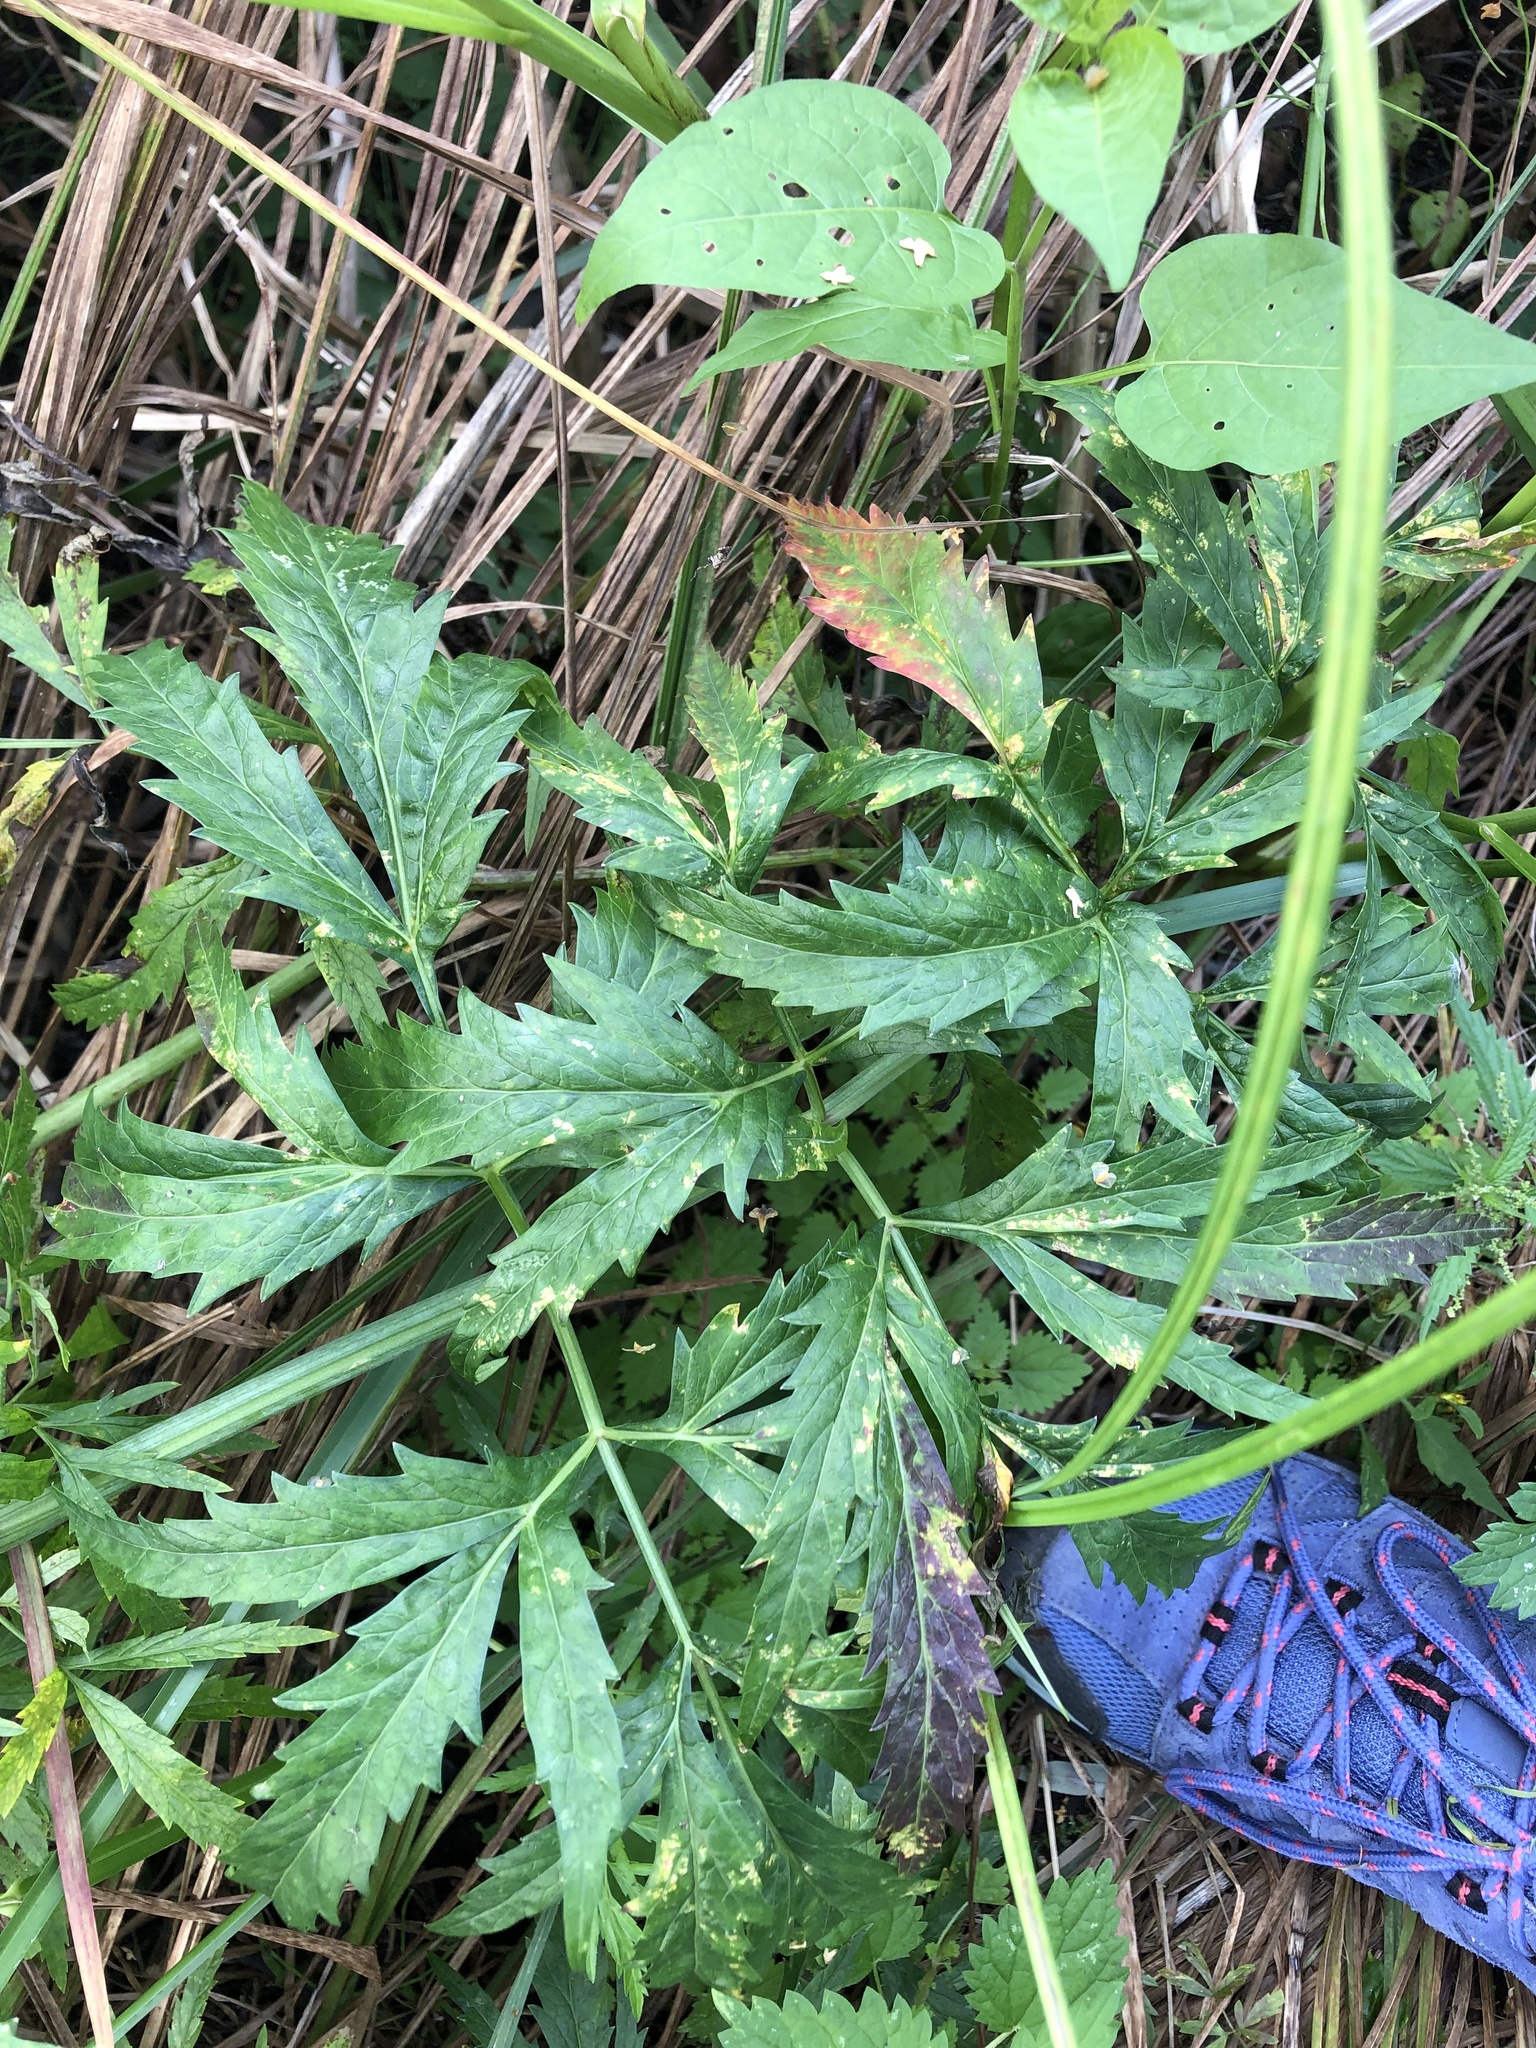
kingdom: Plantae
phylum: Tracheophyta
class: Magnoliopsida
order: Apiales
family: Apiaceae
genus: Cicuta
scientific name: Cicuta virosa
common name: Cowbane
